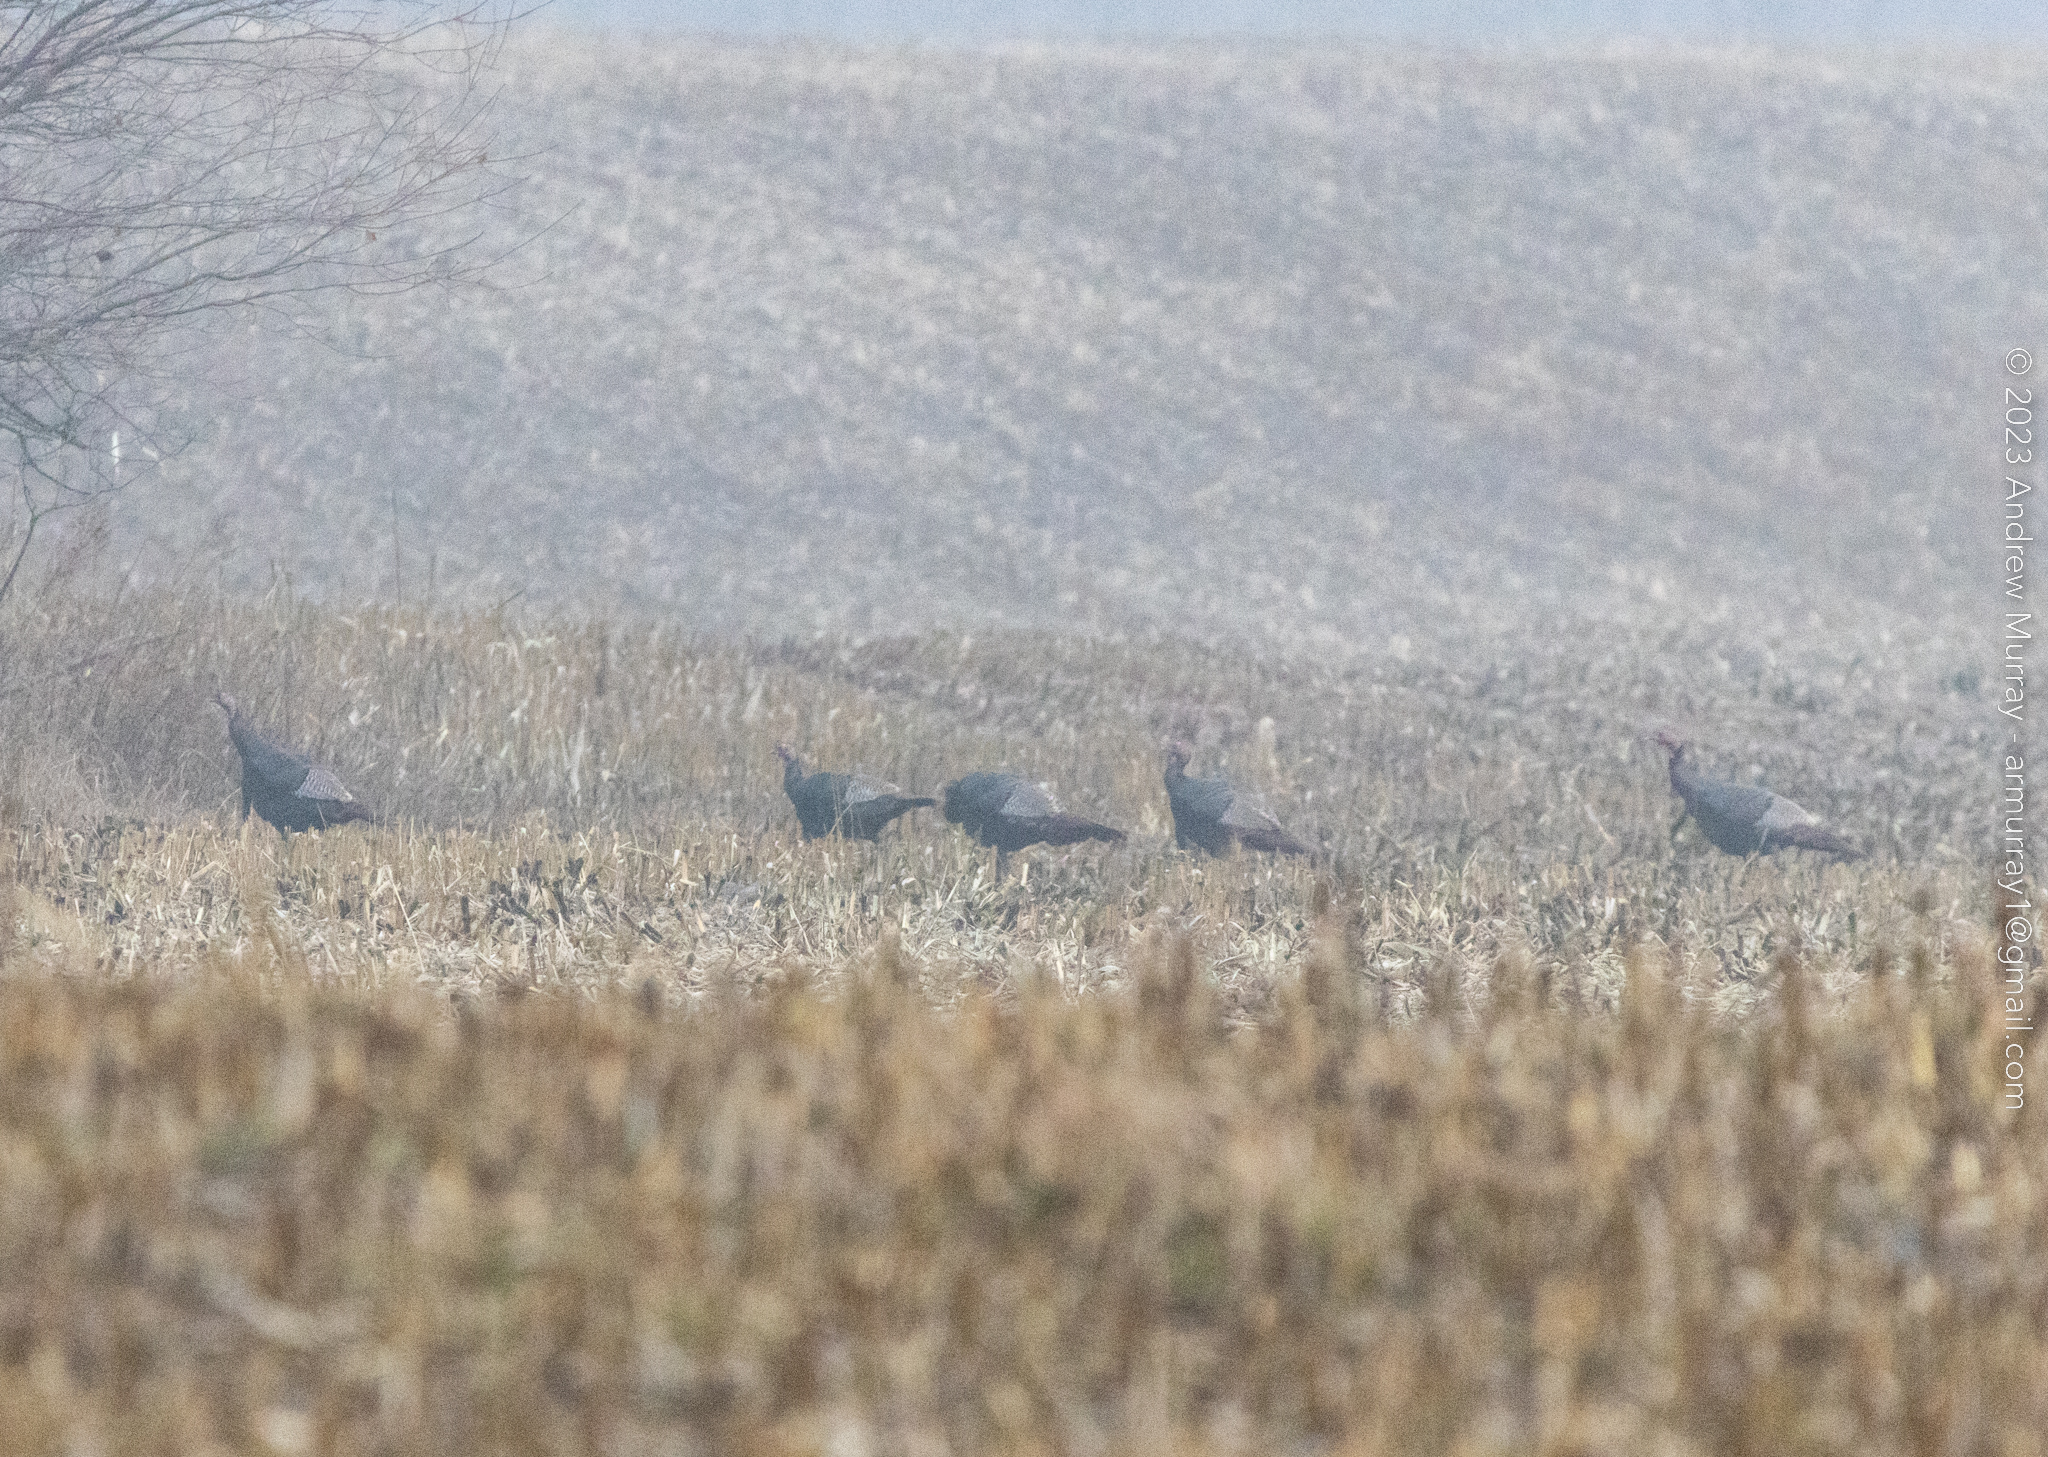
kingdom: Animalia
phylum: Chordata
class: Aves
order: Galliformes
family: Phasianidae
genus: Meleagris
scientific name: Meleagris gallopavo
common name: Wild turkey
